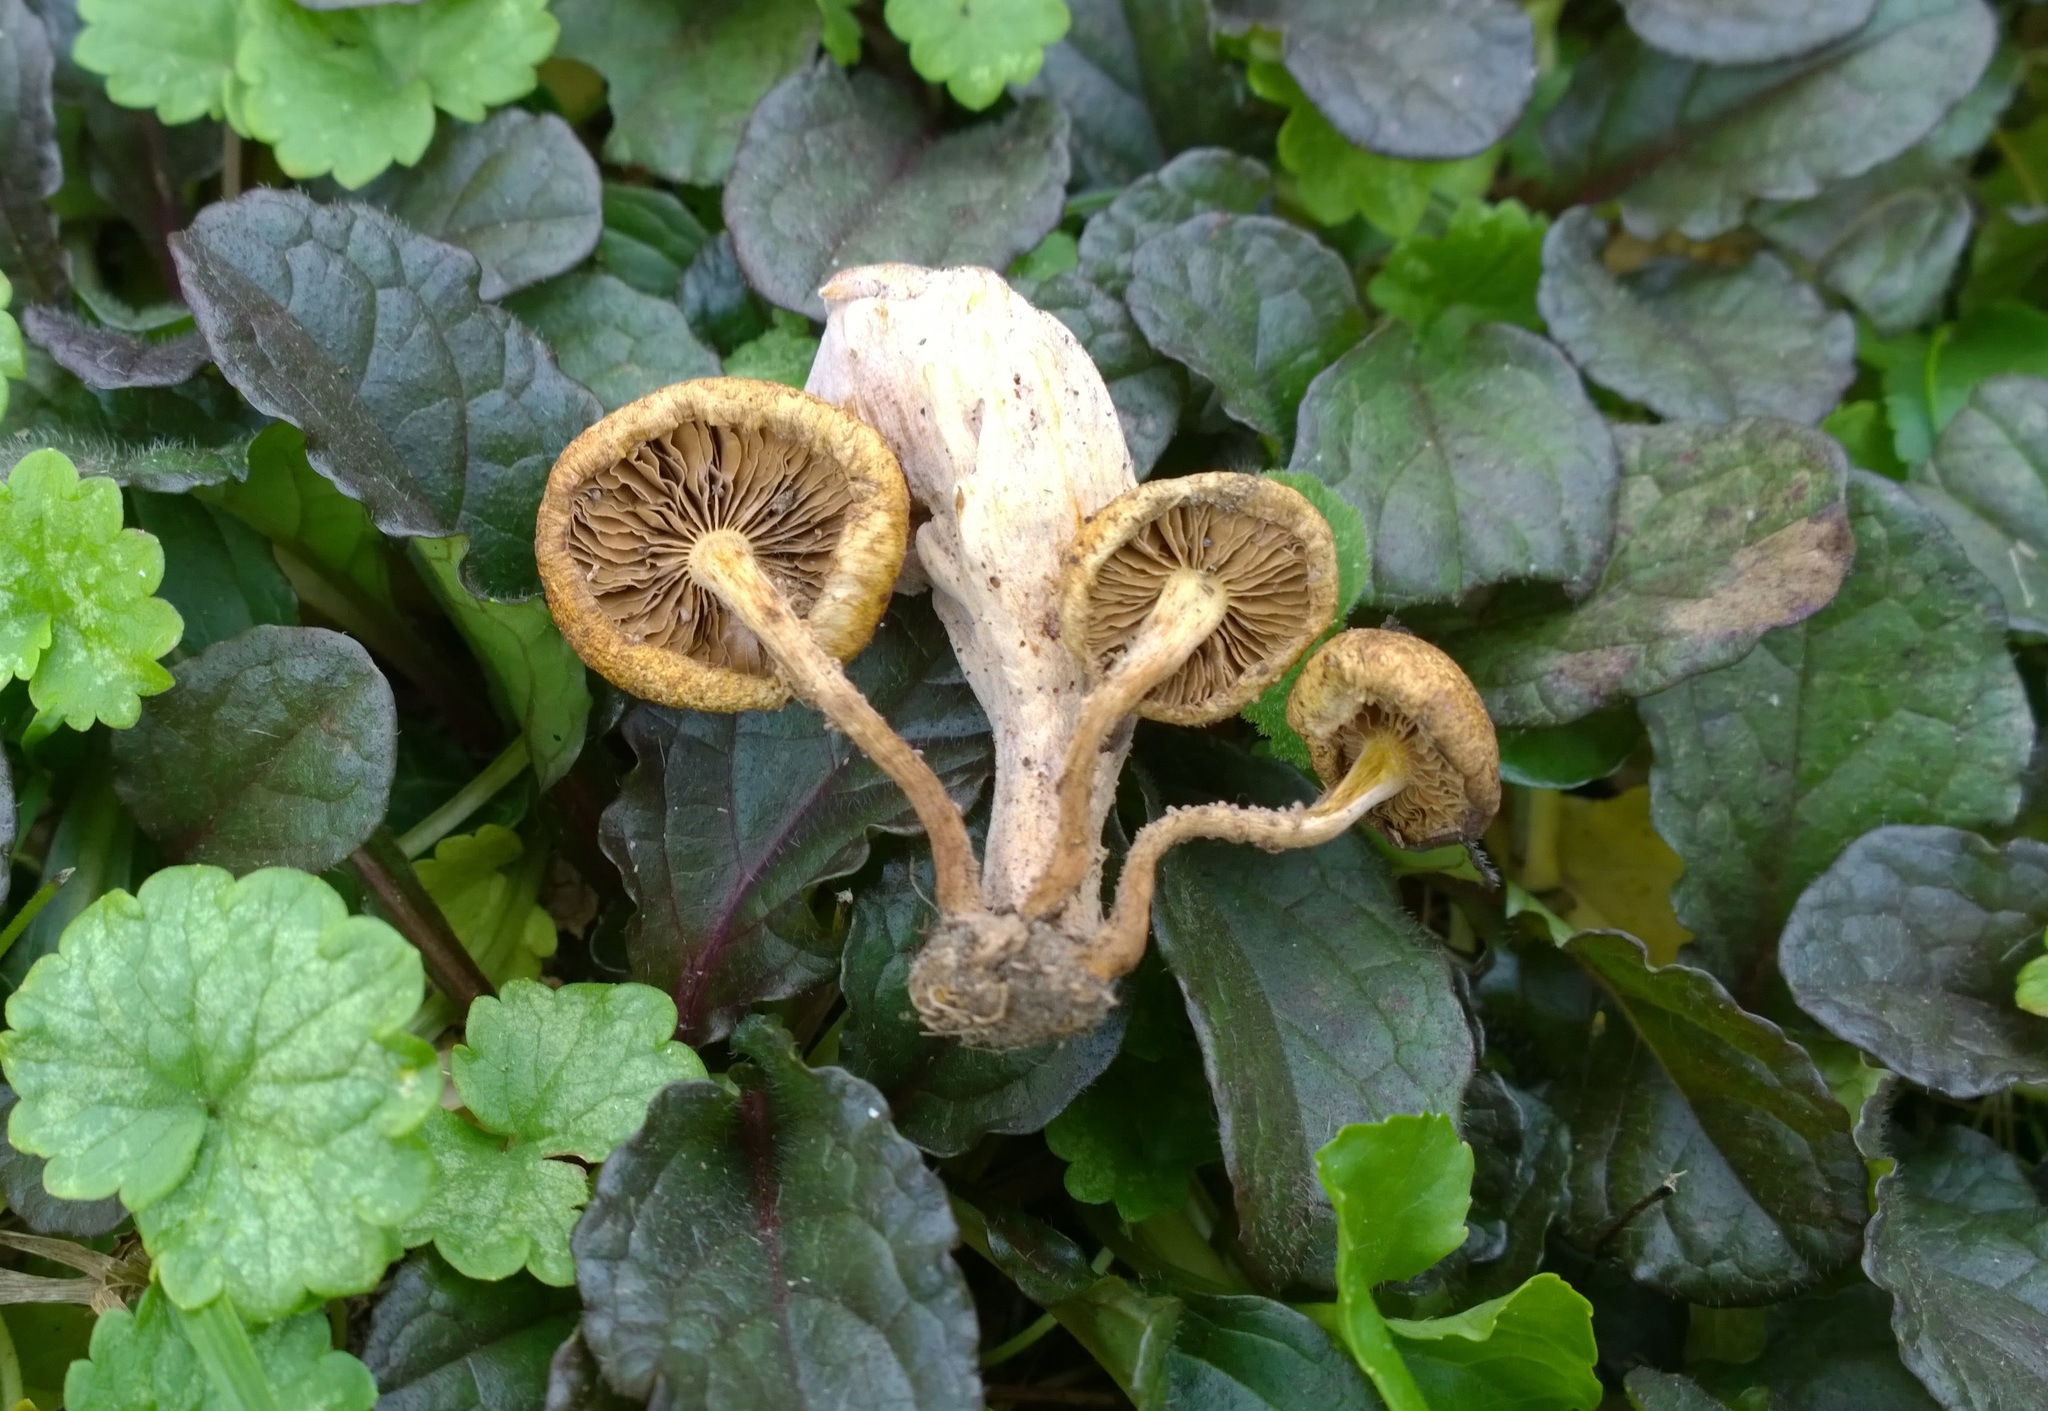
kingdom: Fungi
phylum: Basidiomycota
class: Agaricomycetes
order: Agaricales
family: Strophariaceae
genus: Pholiota
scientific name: Pholiota angustipes
